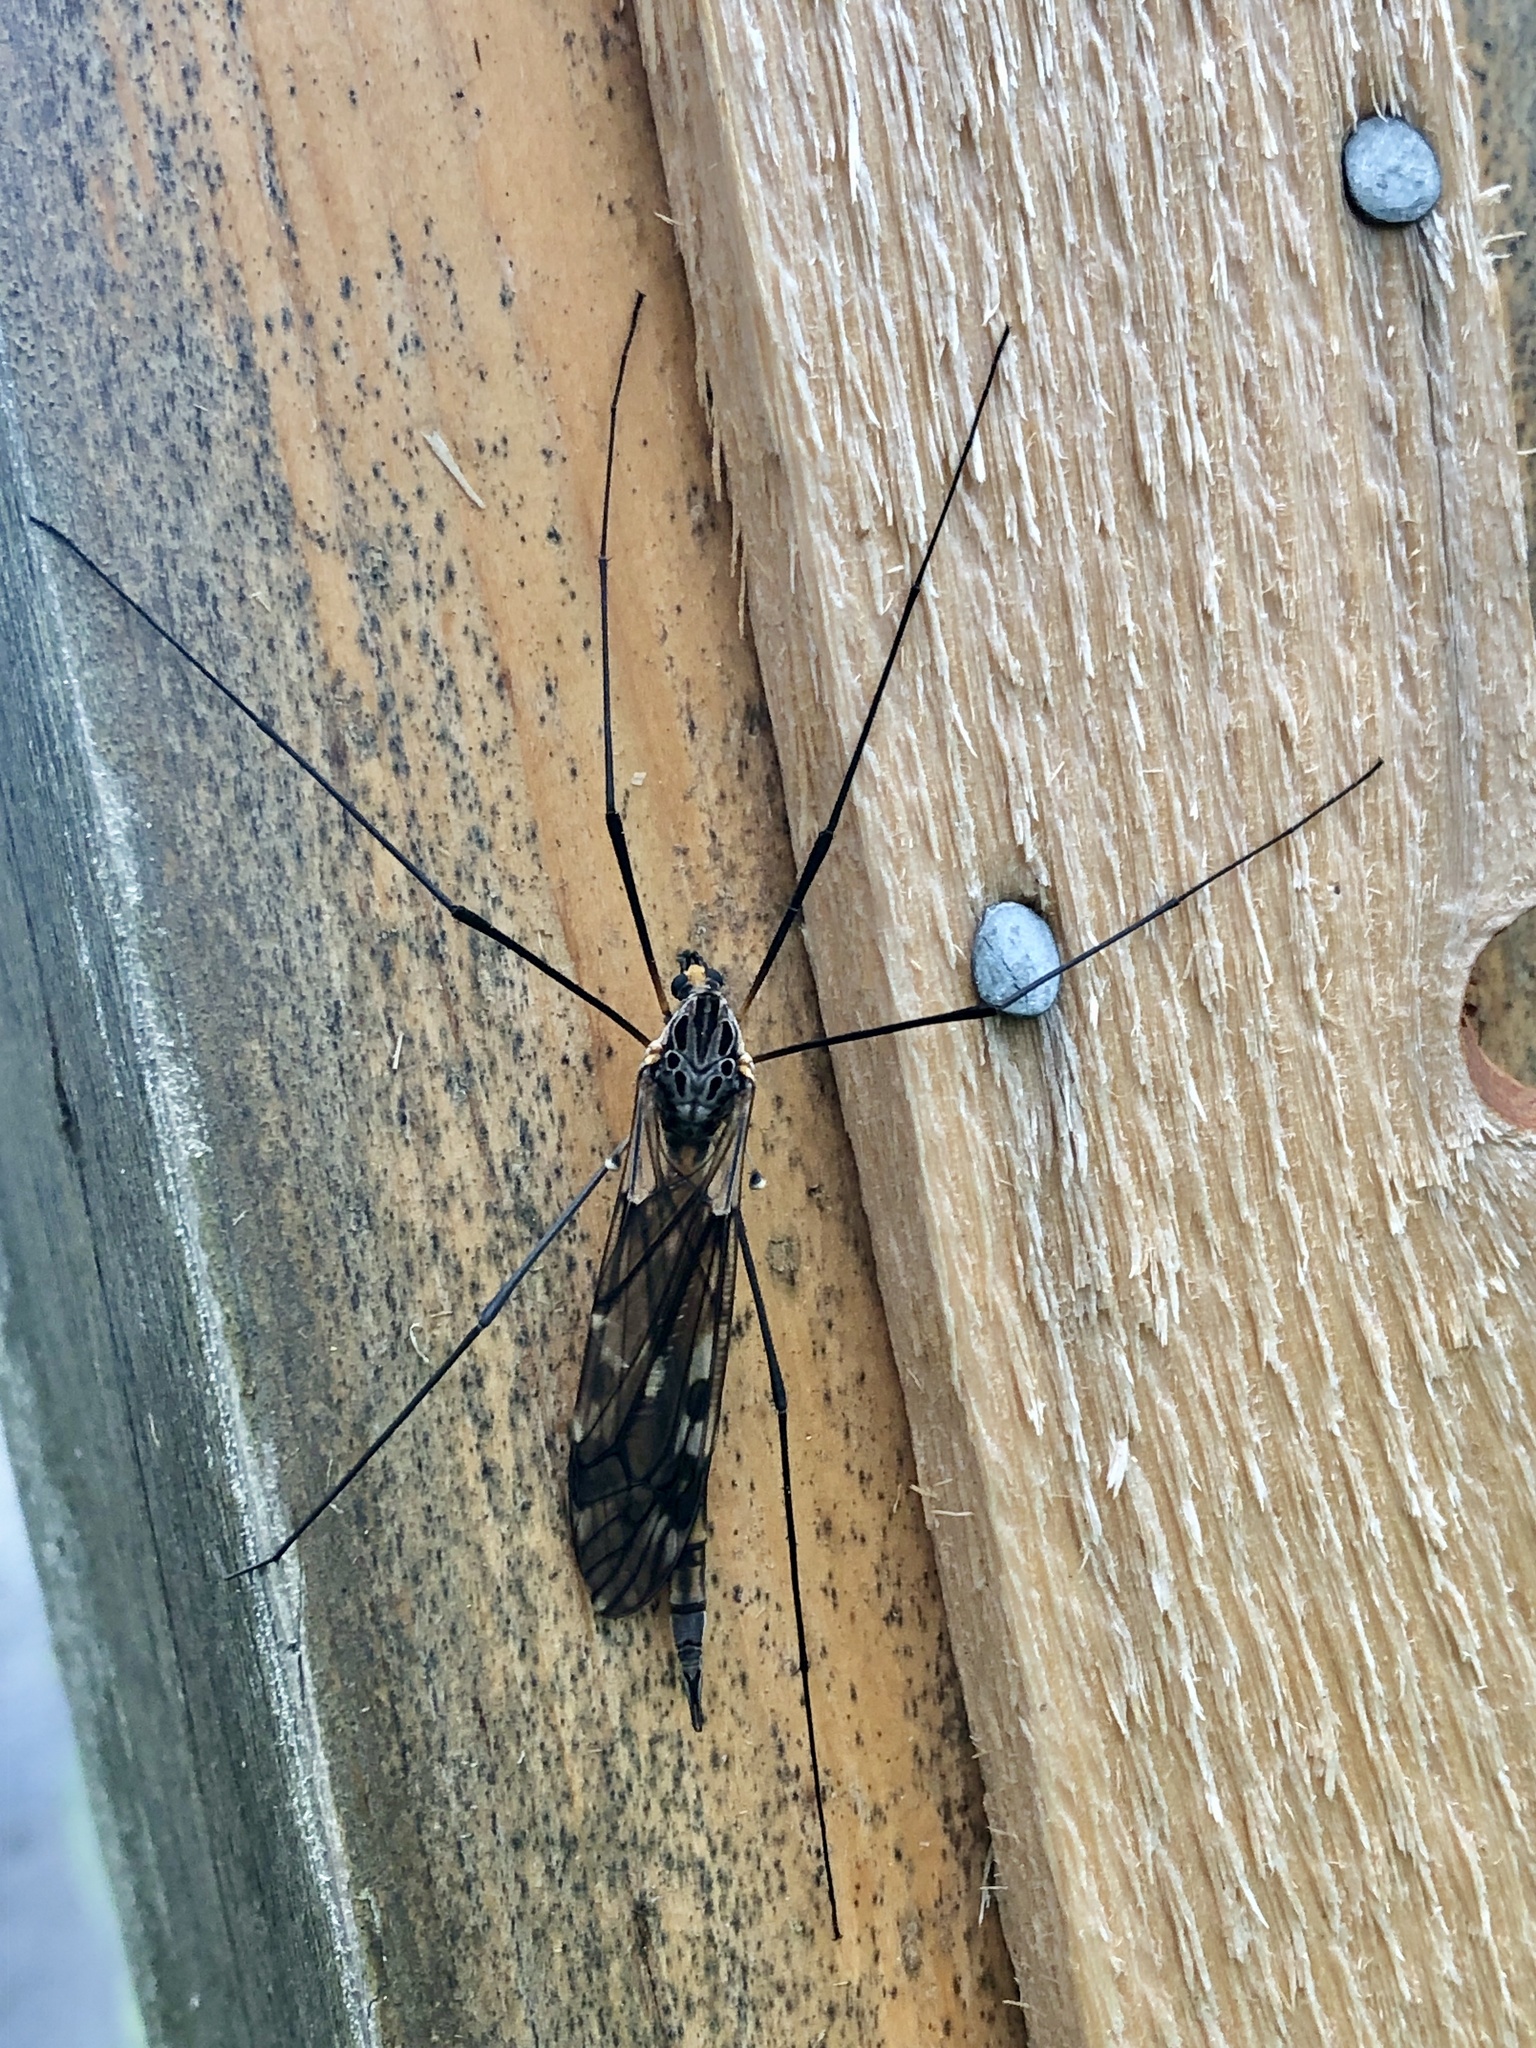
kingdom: Animalia
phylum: Arthropoda
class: Insecta
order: Diptera
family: Tipulidae
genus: Tipula
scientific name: Tipula metacomet
